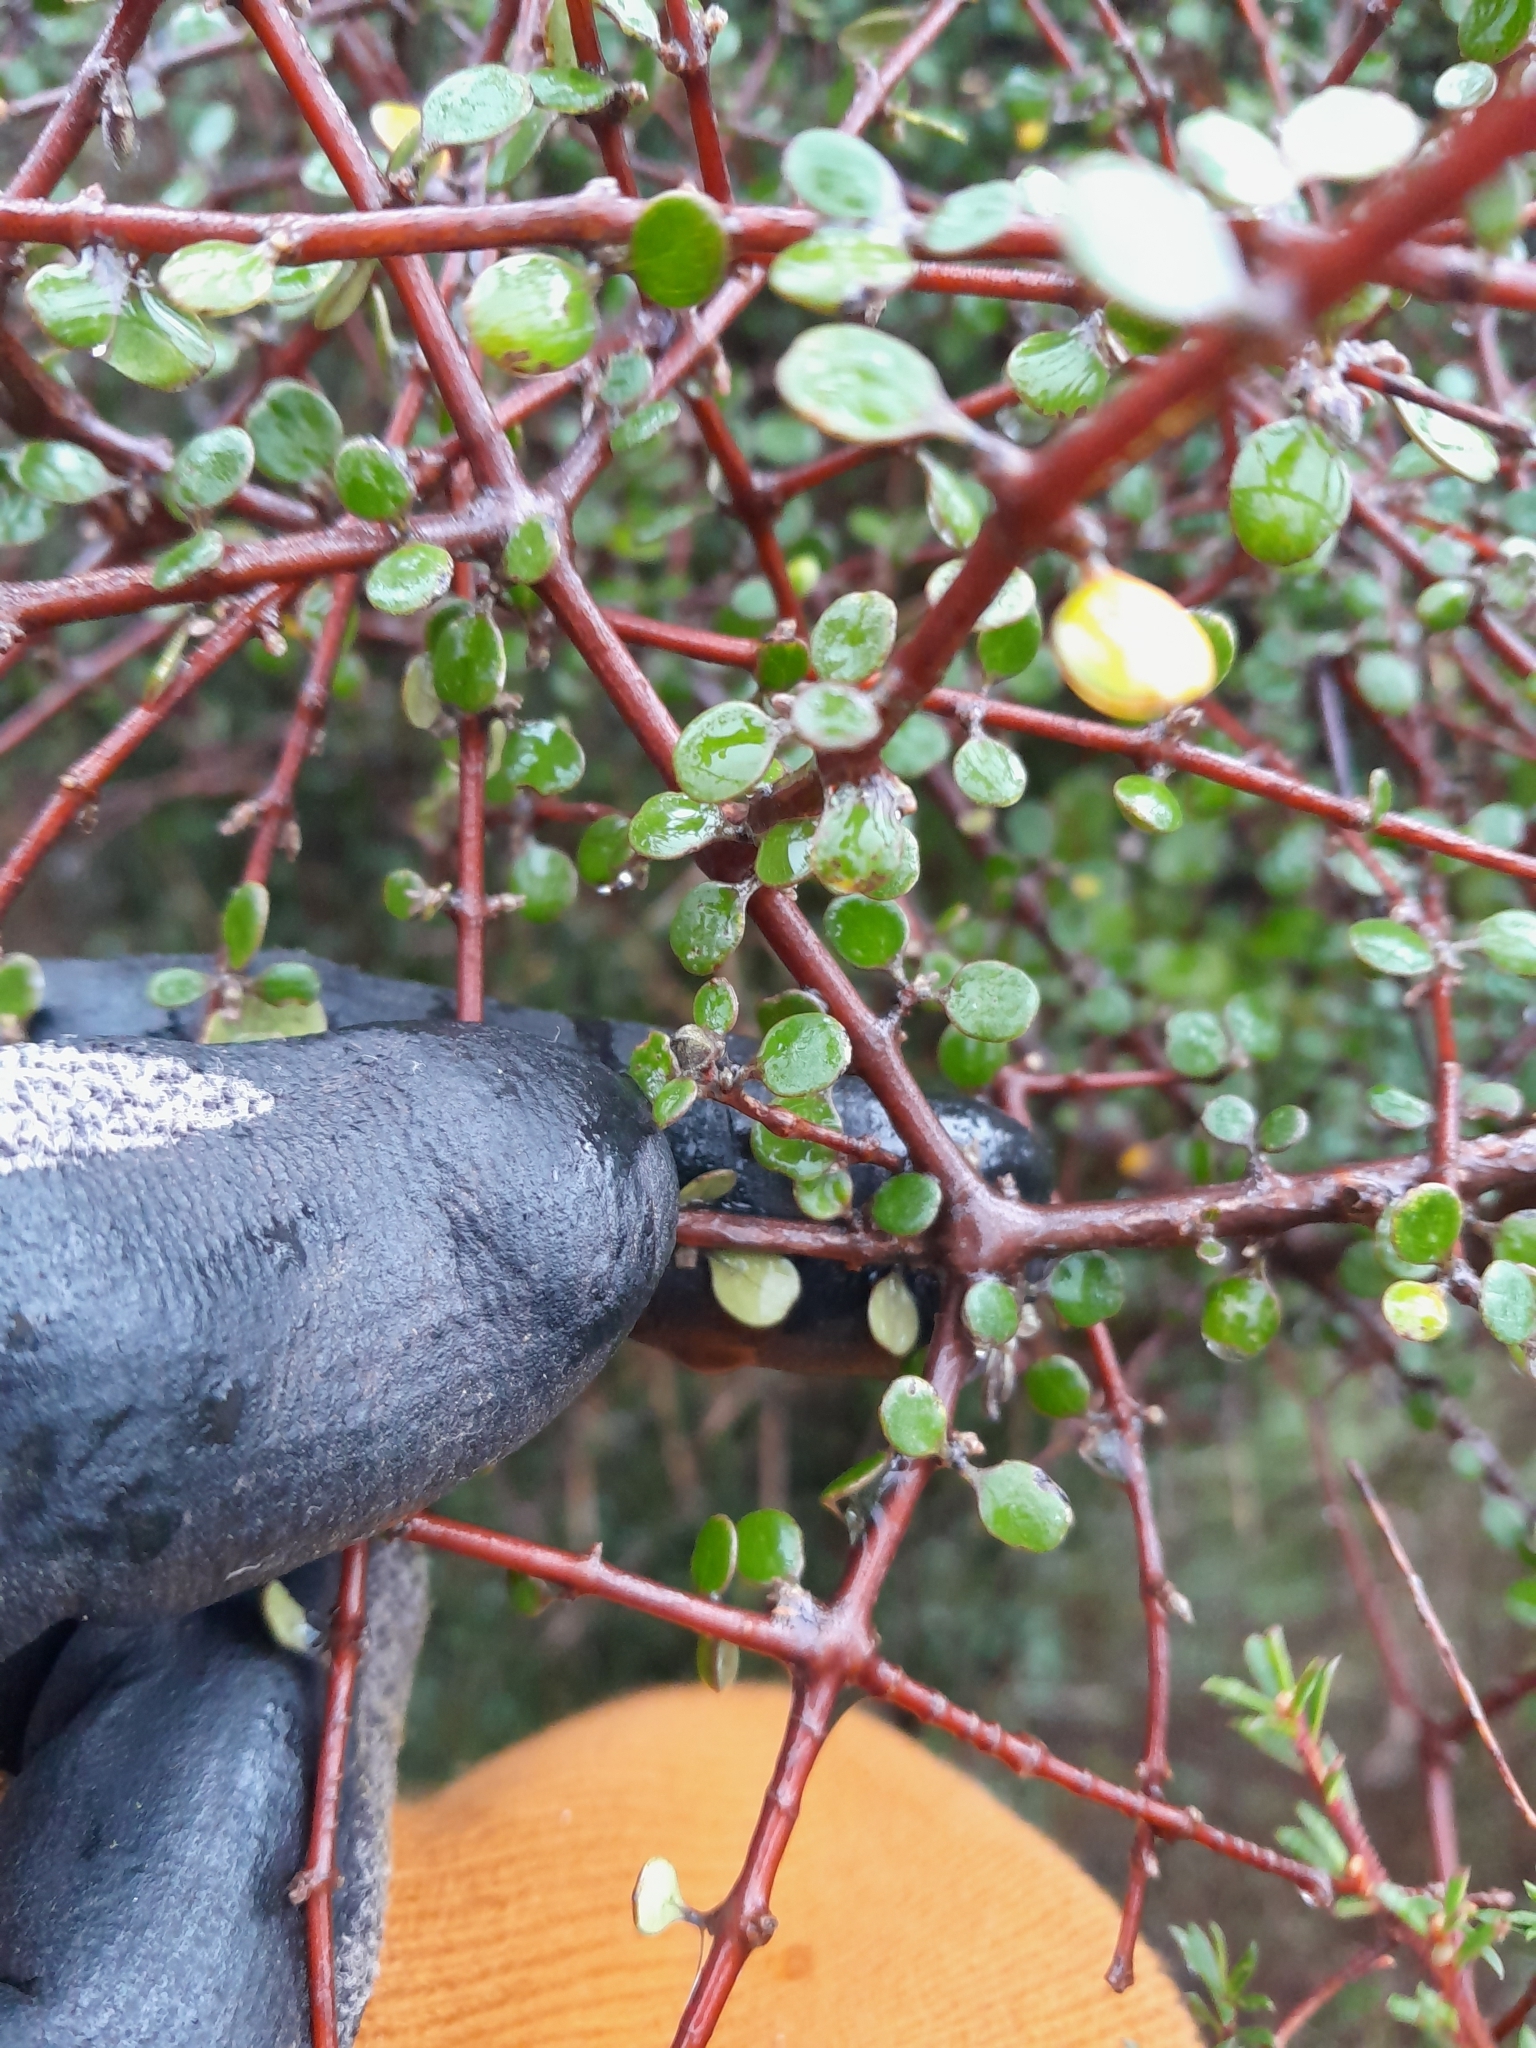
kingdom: Plantae
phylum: Tracheophyta
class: Magnoliopsida
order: Gentianales
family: Rubiaceae
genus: Coprosma
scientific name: Coprosma crassifolia
